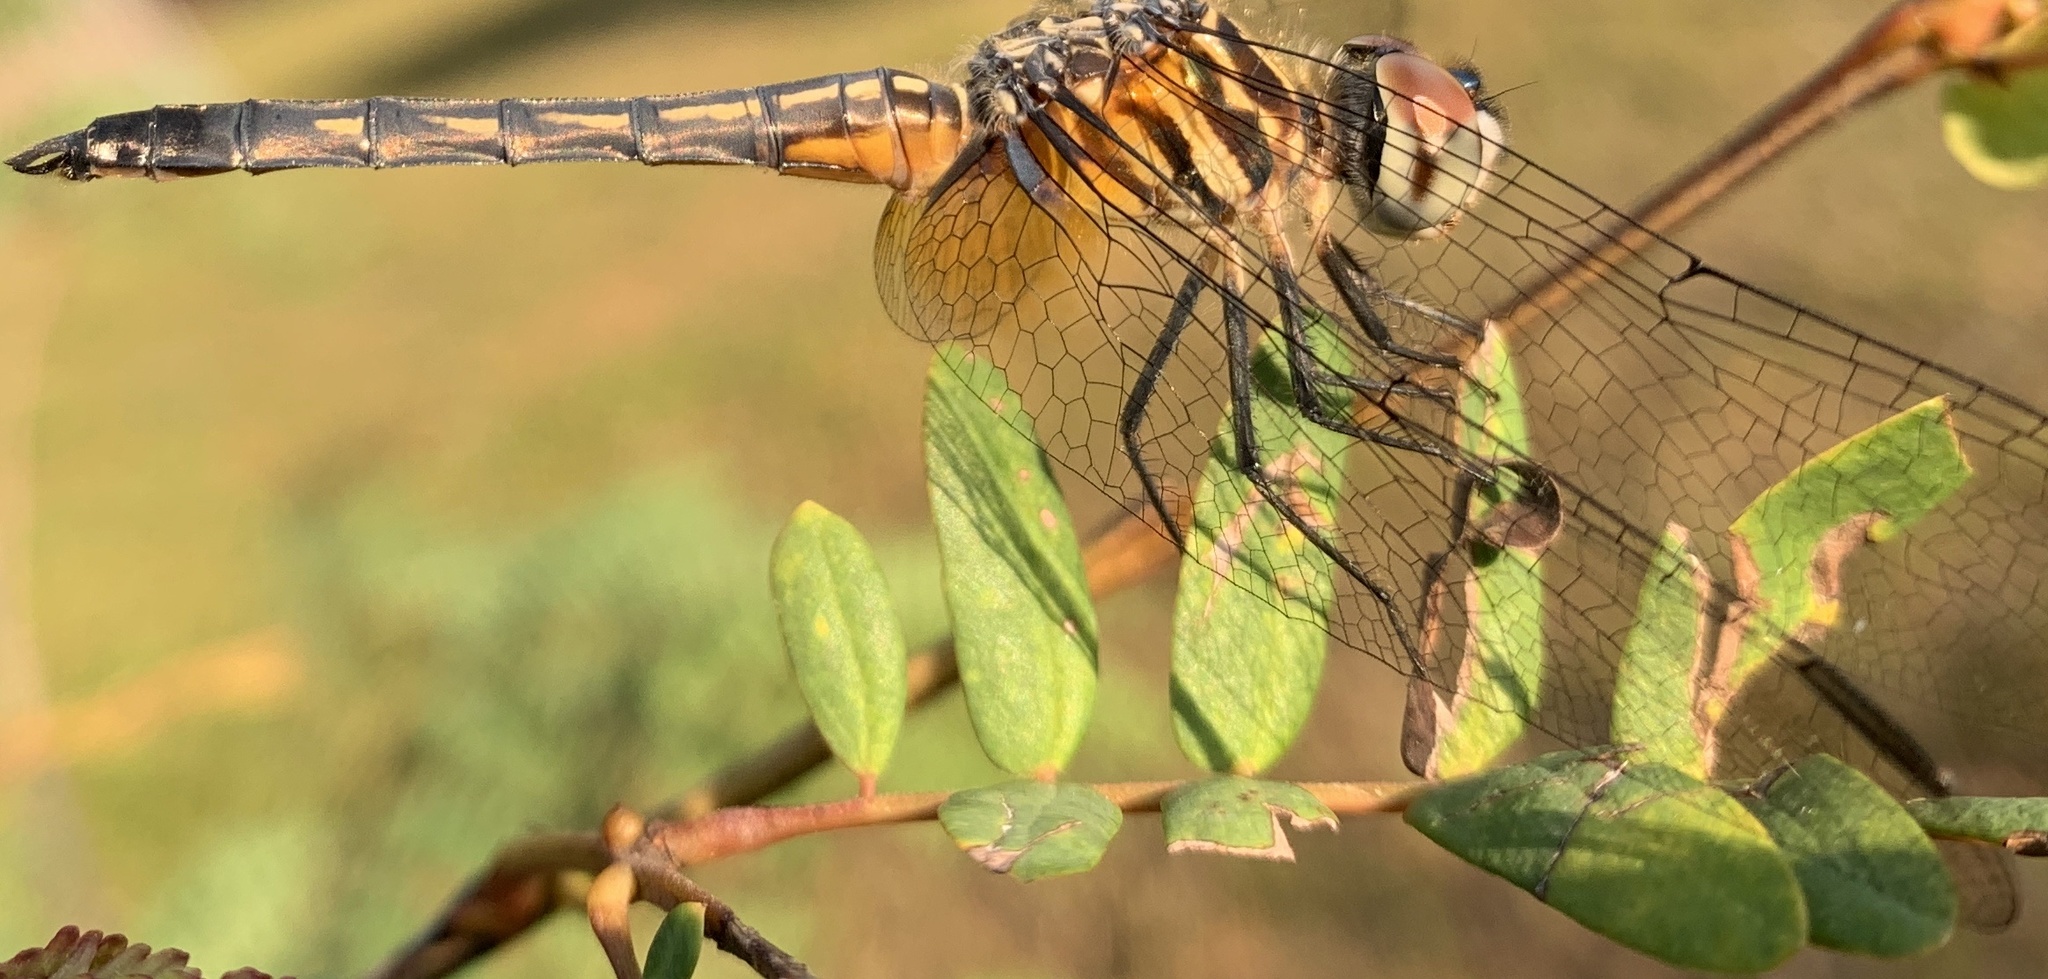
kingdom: Animalia
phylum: Arthropoda
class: Insecta
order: Odonata
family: Libellulidae
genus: Pachydiplax
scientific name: Pachydiplax longipennis
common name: Blue dasher
